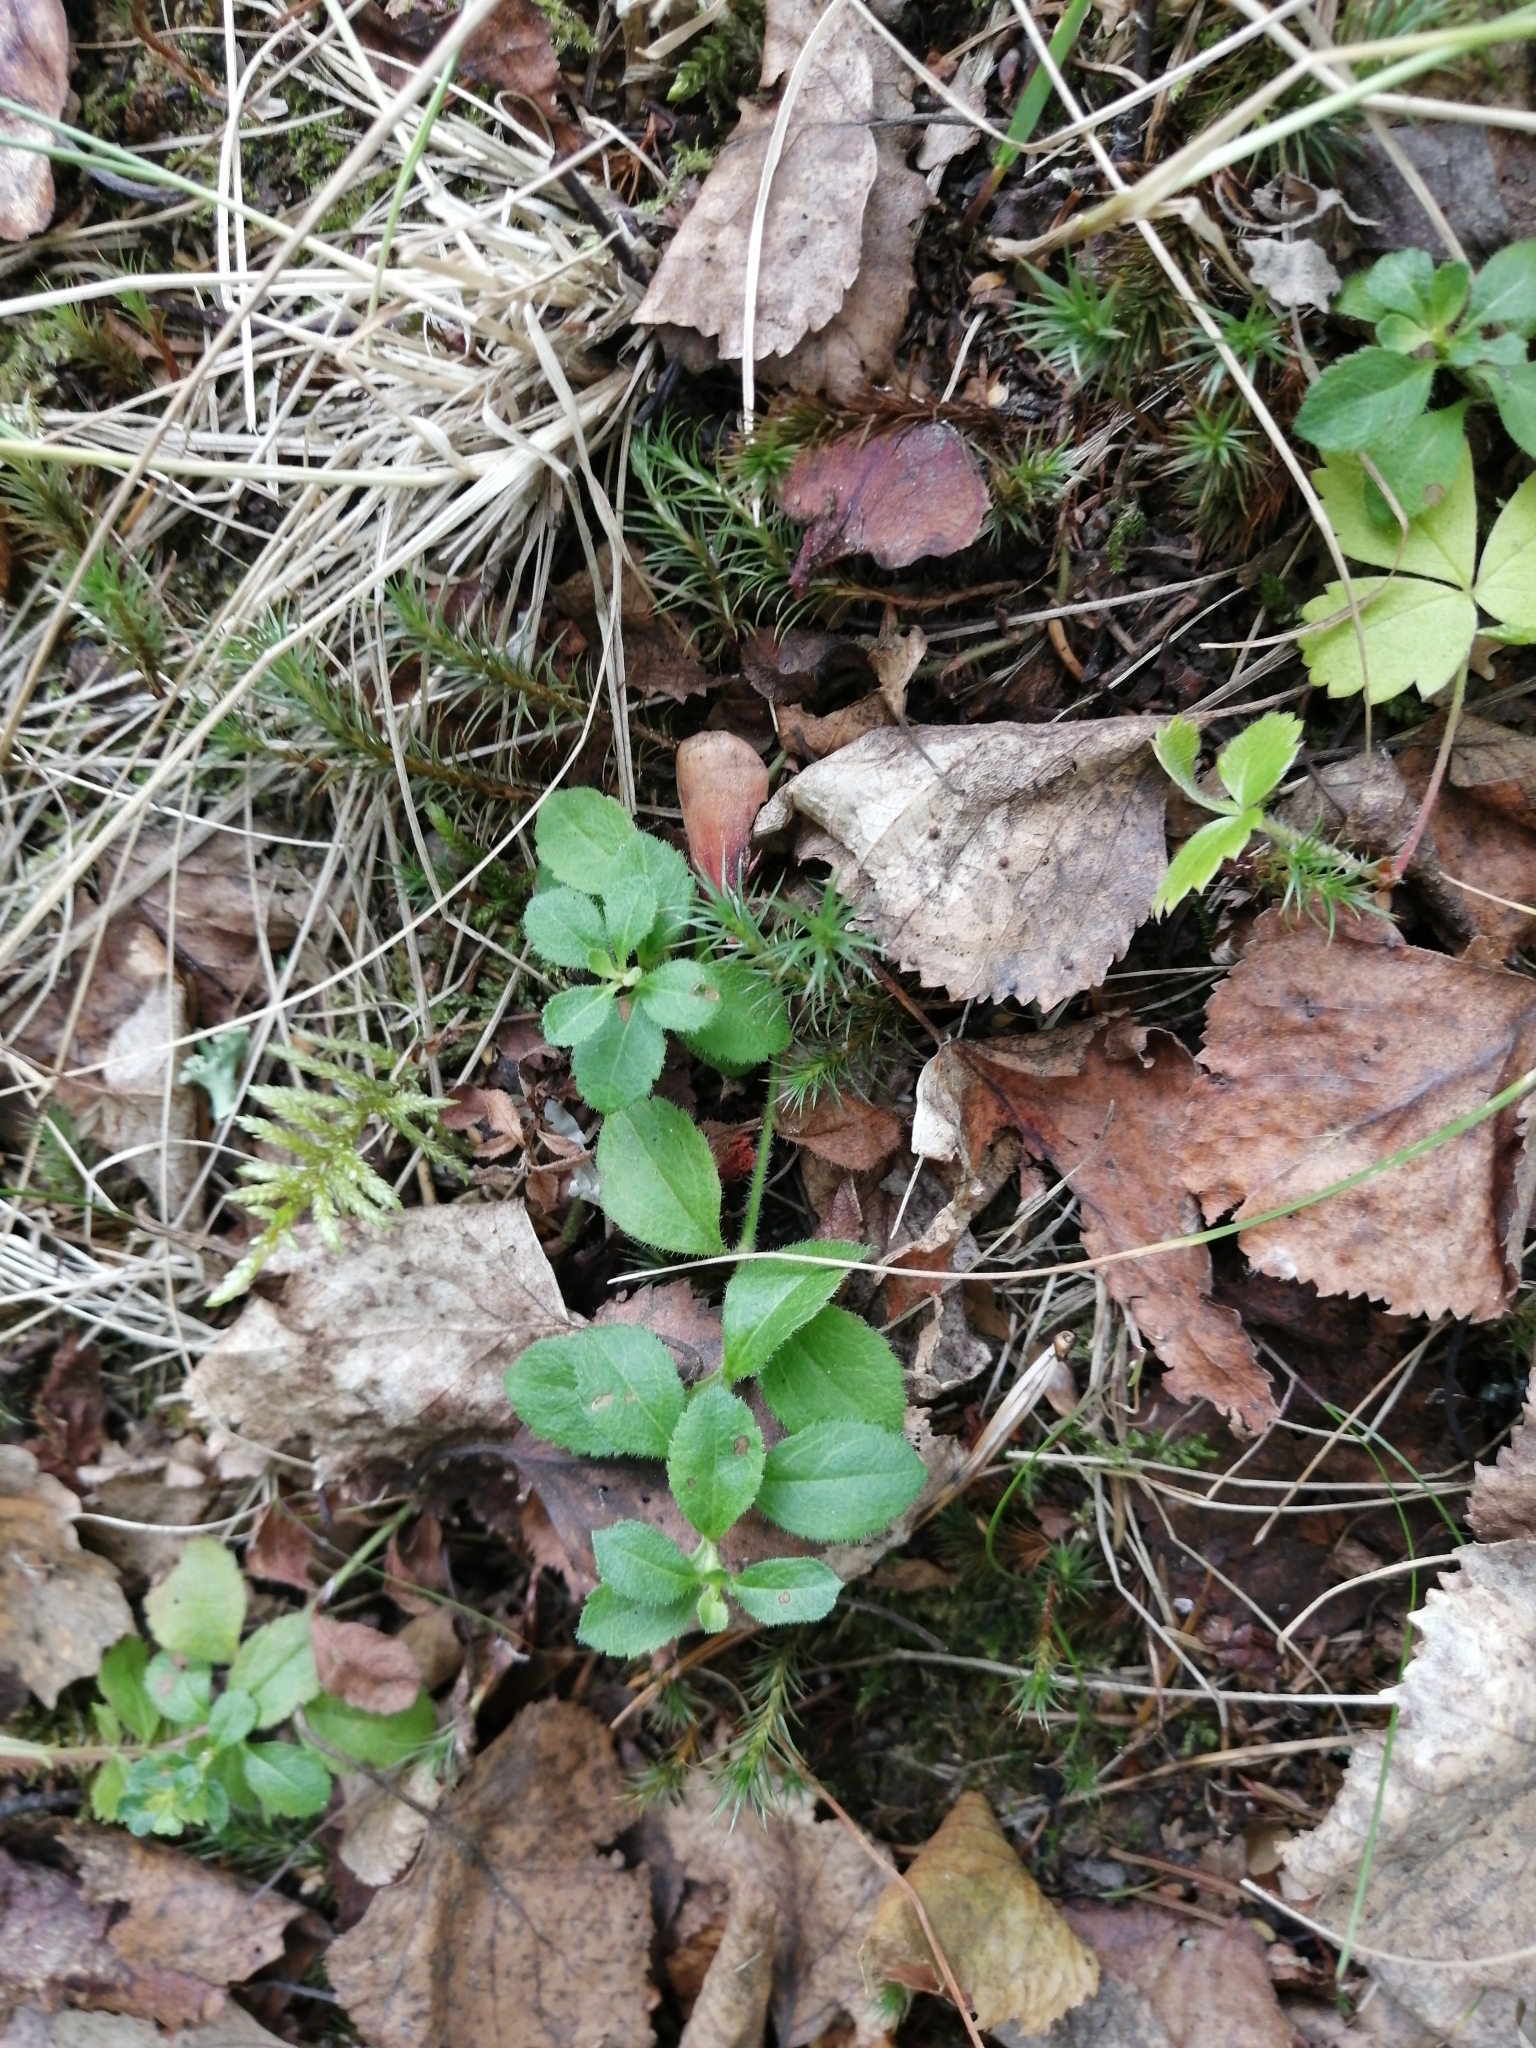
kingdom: Plantae
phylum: Tracheophyta
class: Magnoliopsida
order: Lamiales
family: Plantaginaceae
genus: Veronica
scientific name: Veronica officinalis
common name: Common speedwell
